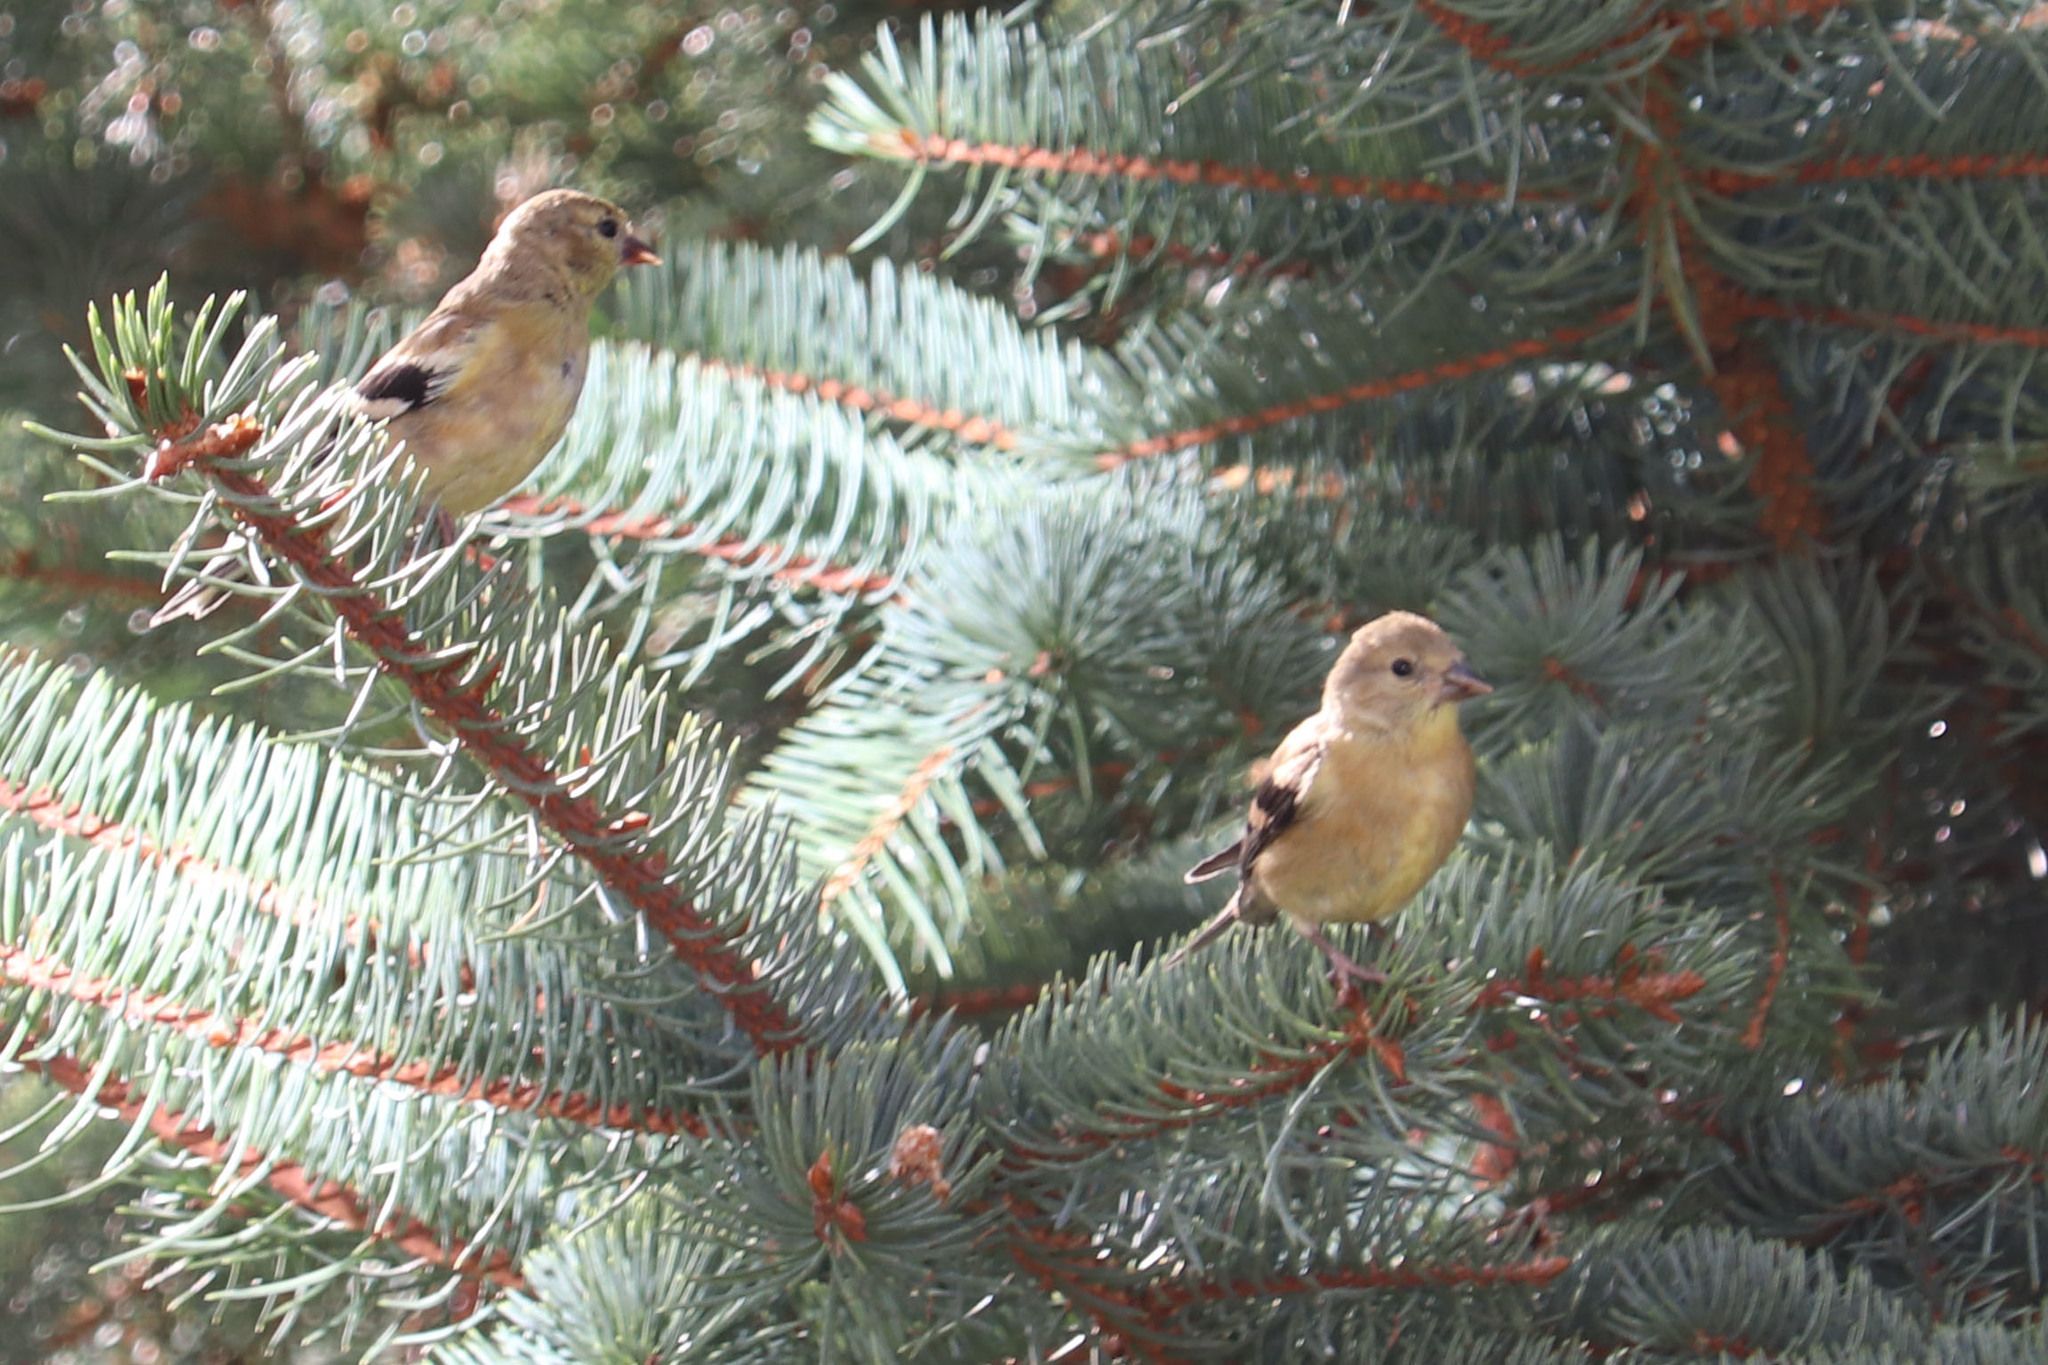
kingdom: Animalia
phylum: Chordata
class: Aves
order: Passeriformes
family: Fringillidae
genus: Spinus
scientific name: Spinus tristis
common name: American goldfinch
